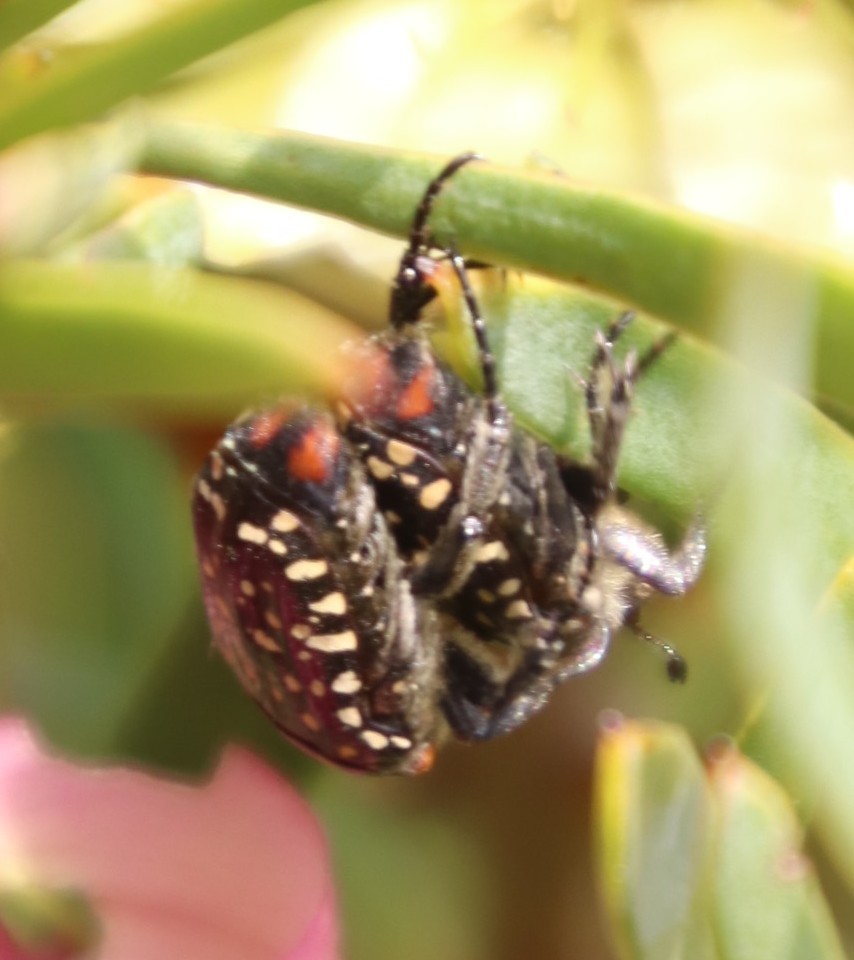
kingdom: Animalia
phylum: Arthropoda
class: Insecta
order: Coleoptera
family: Scarabaeidae
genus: Oxythyrea
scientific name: Oxythyrea
